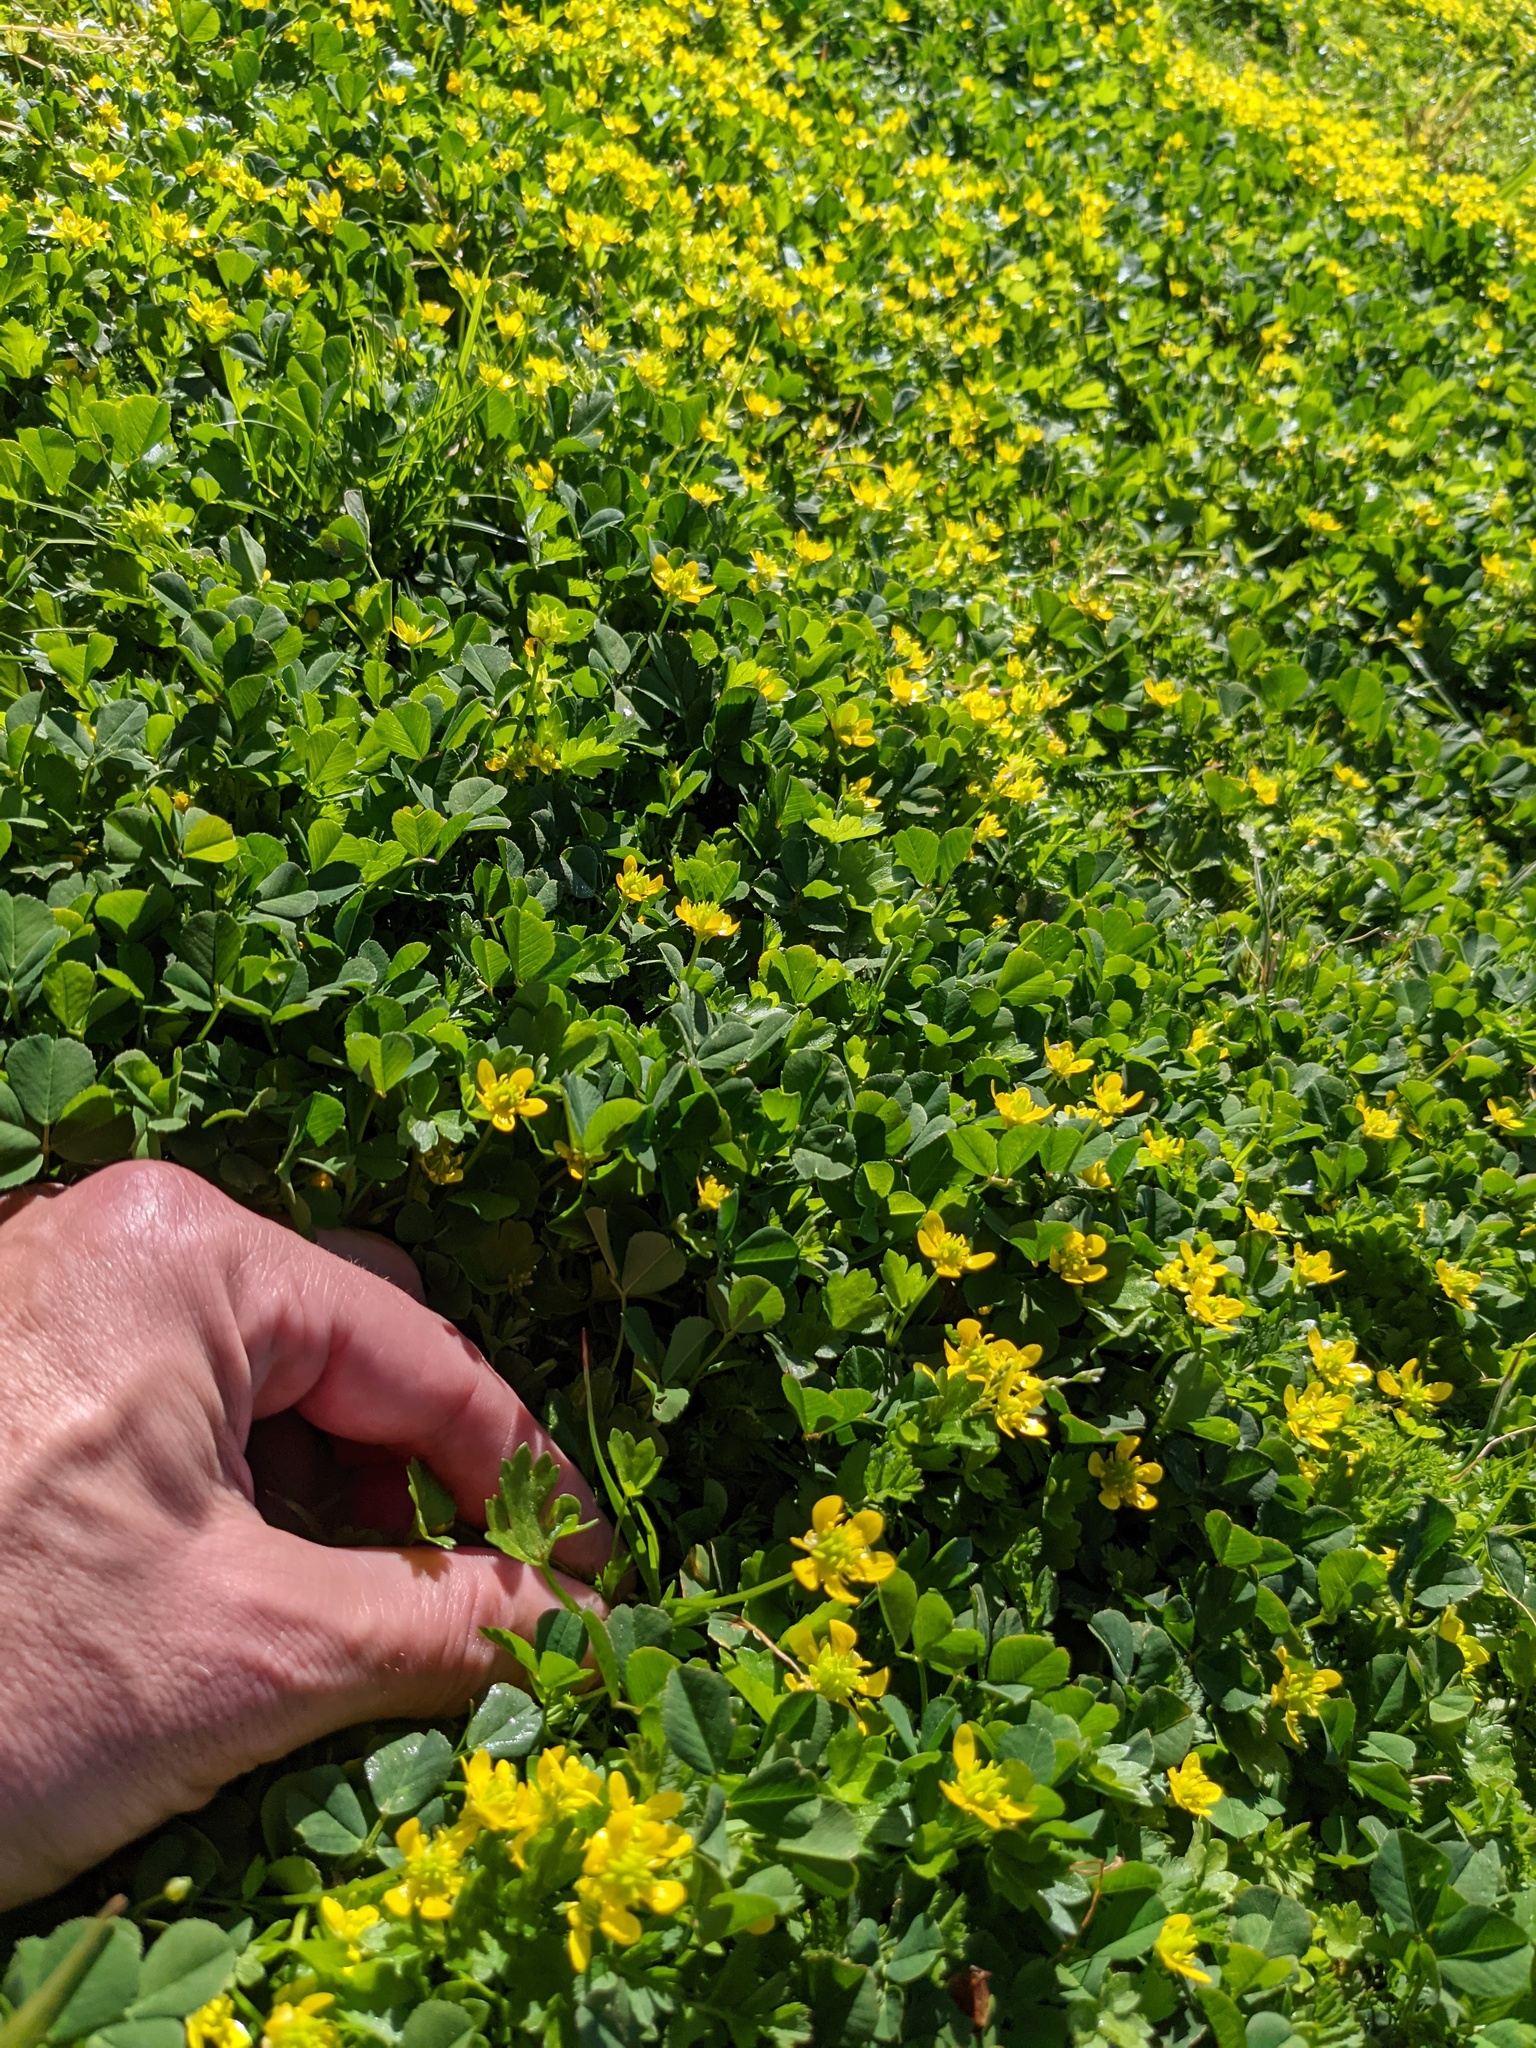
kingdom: Plantae
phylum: Tracheophyta
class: Magnoliopsida
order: Ranunculales
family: Ranunculaceae
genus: Ranunculus
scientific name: Ranunculus muricatus
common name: Rough-fruited buttercup
